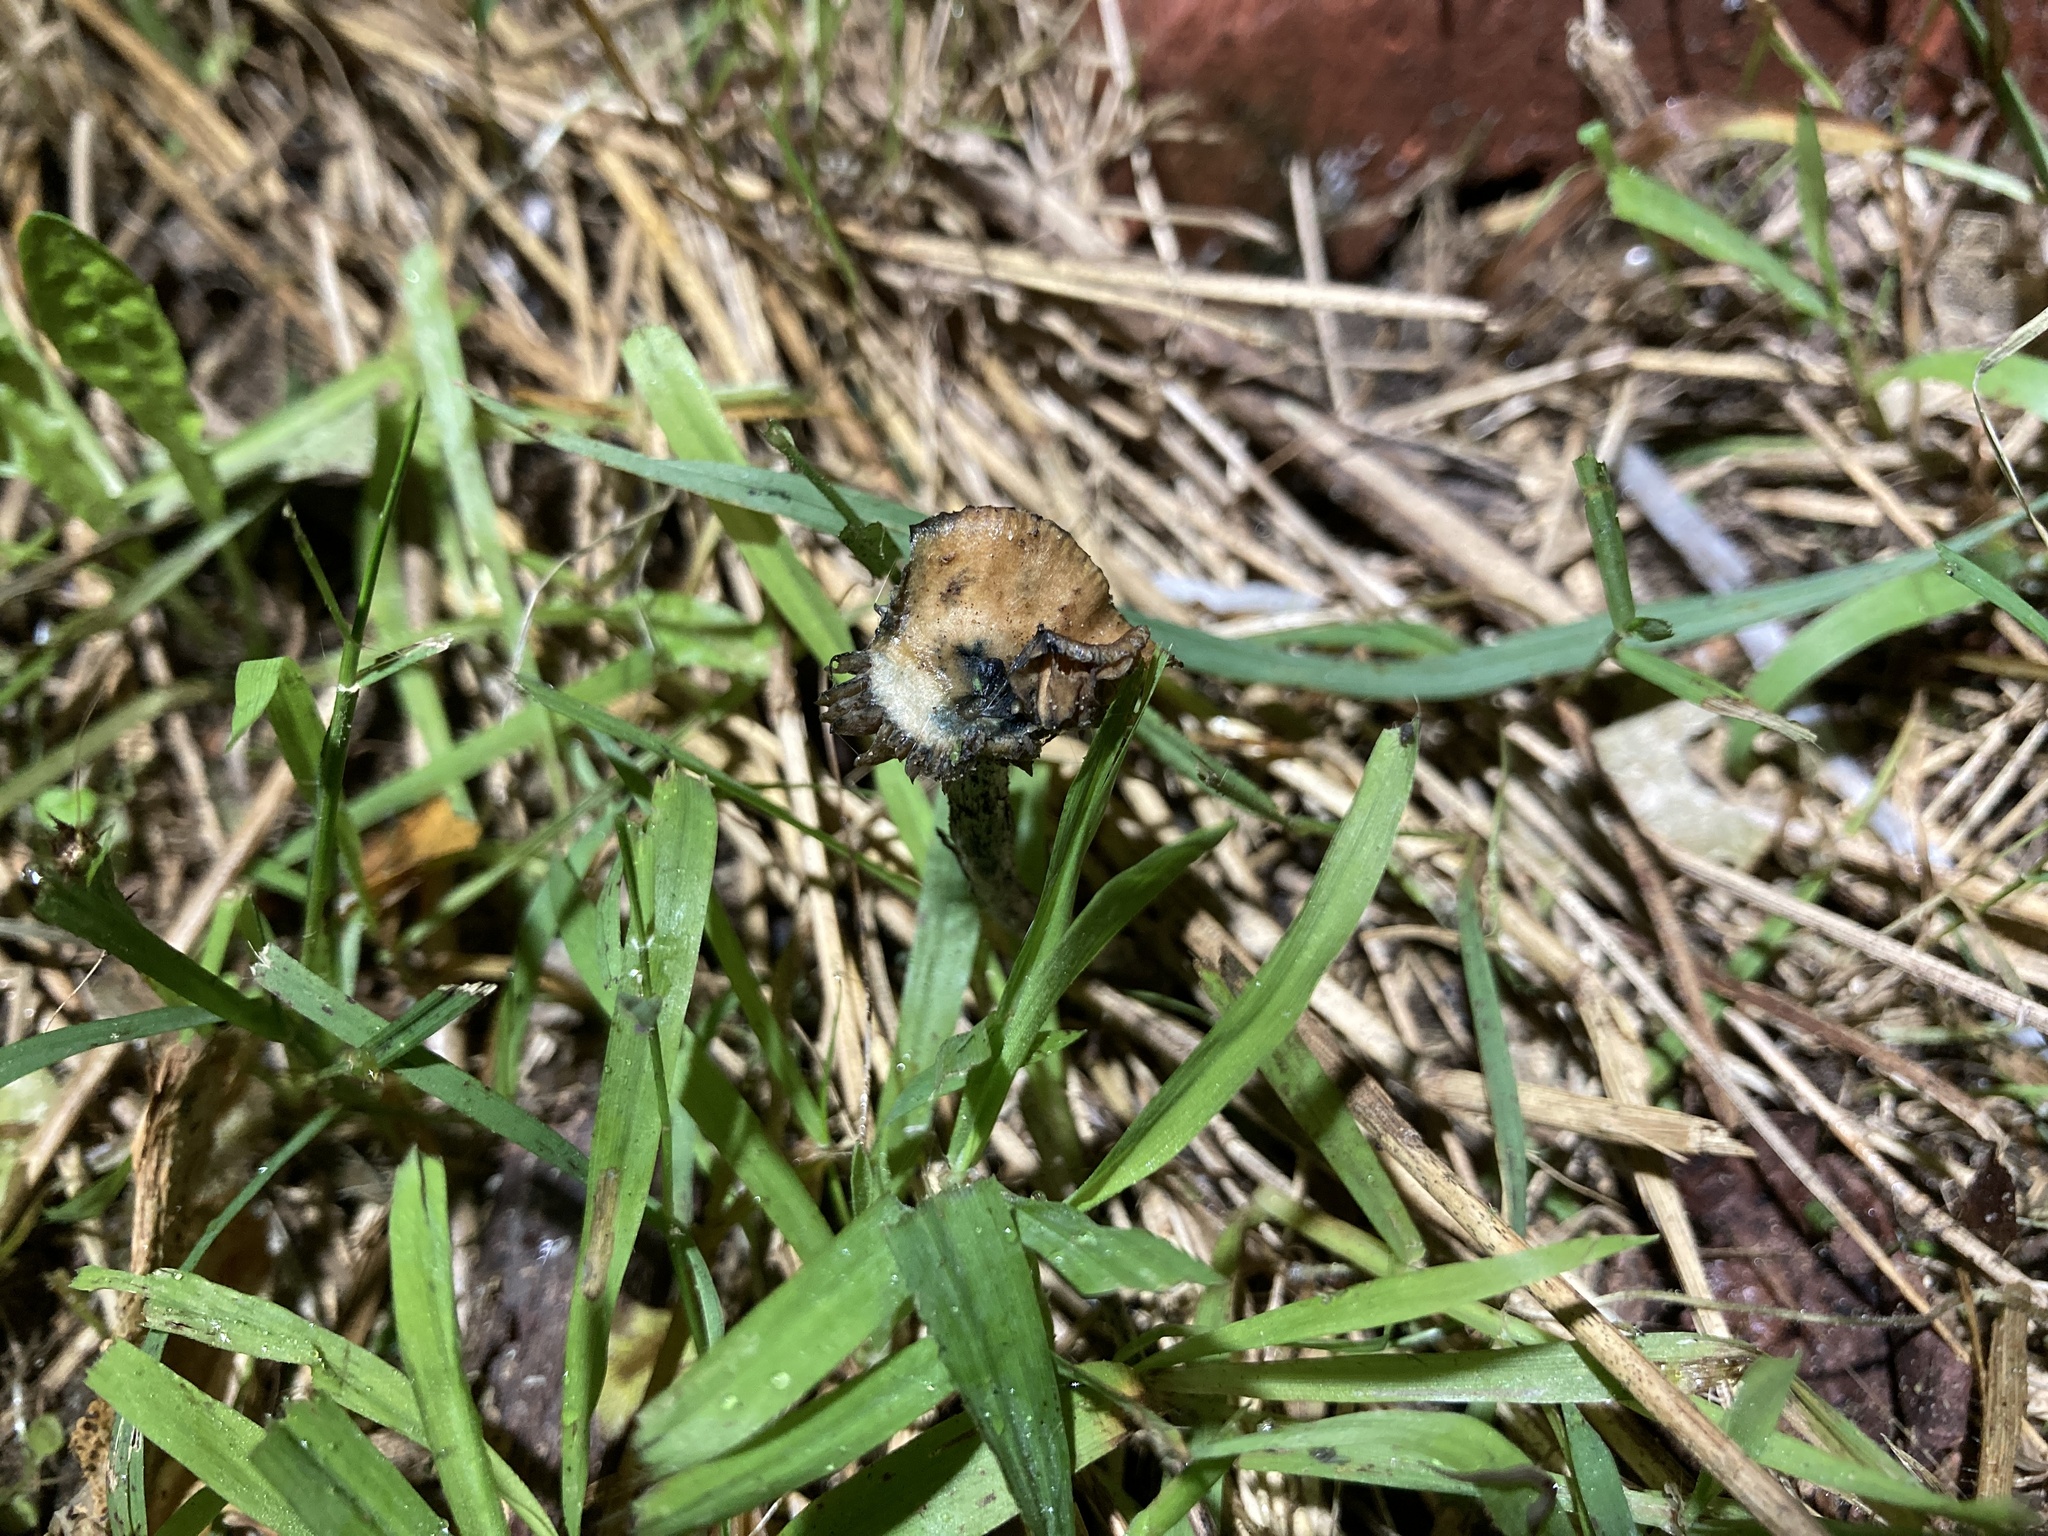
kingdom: Fungi
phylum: Basidiomycota
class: Agaricomycetes
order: Agaricales
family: Hymenogastraceae
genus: Psilocybe
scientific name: Psilocybe subaeruginosa
